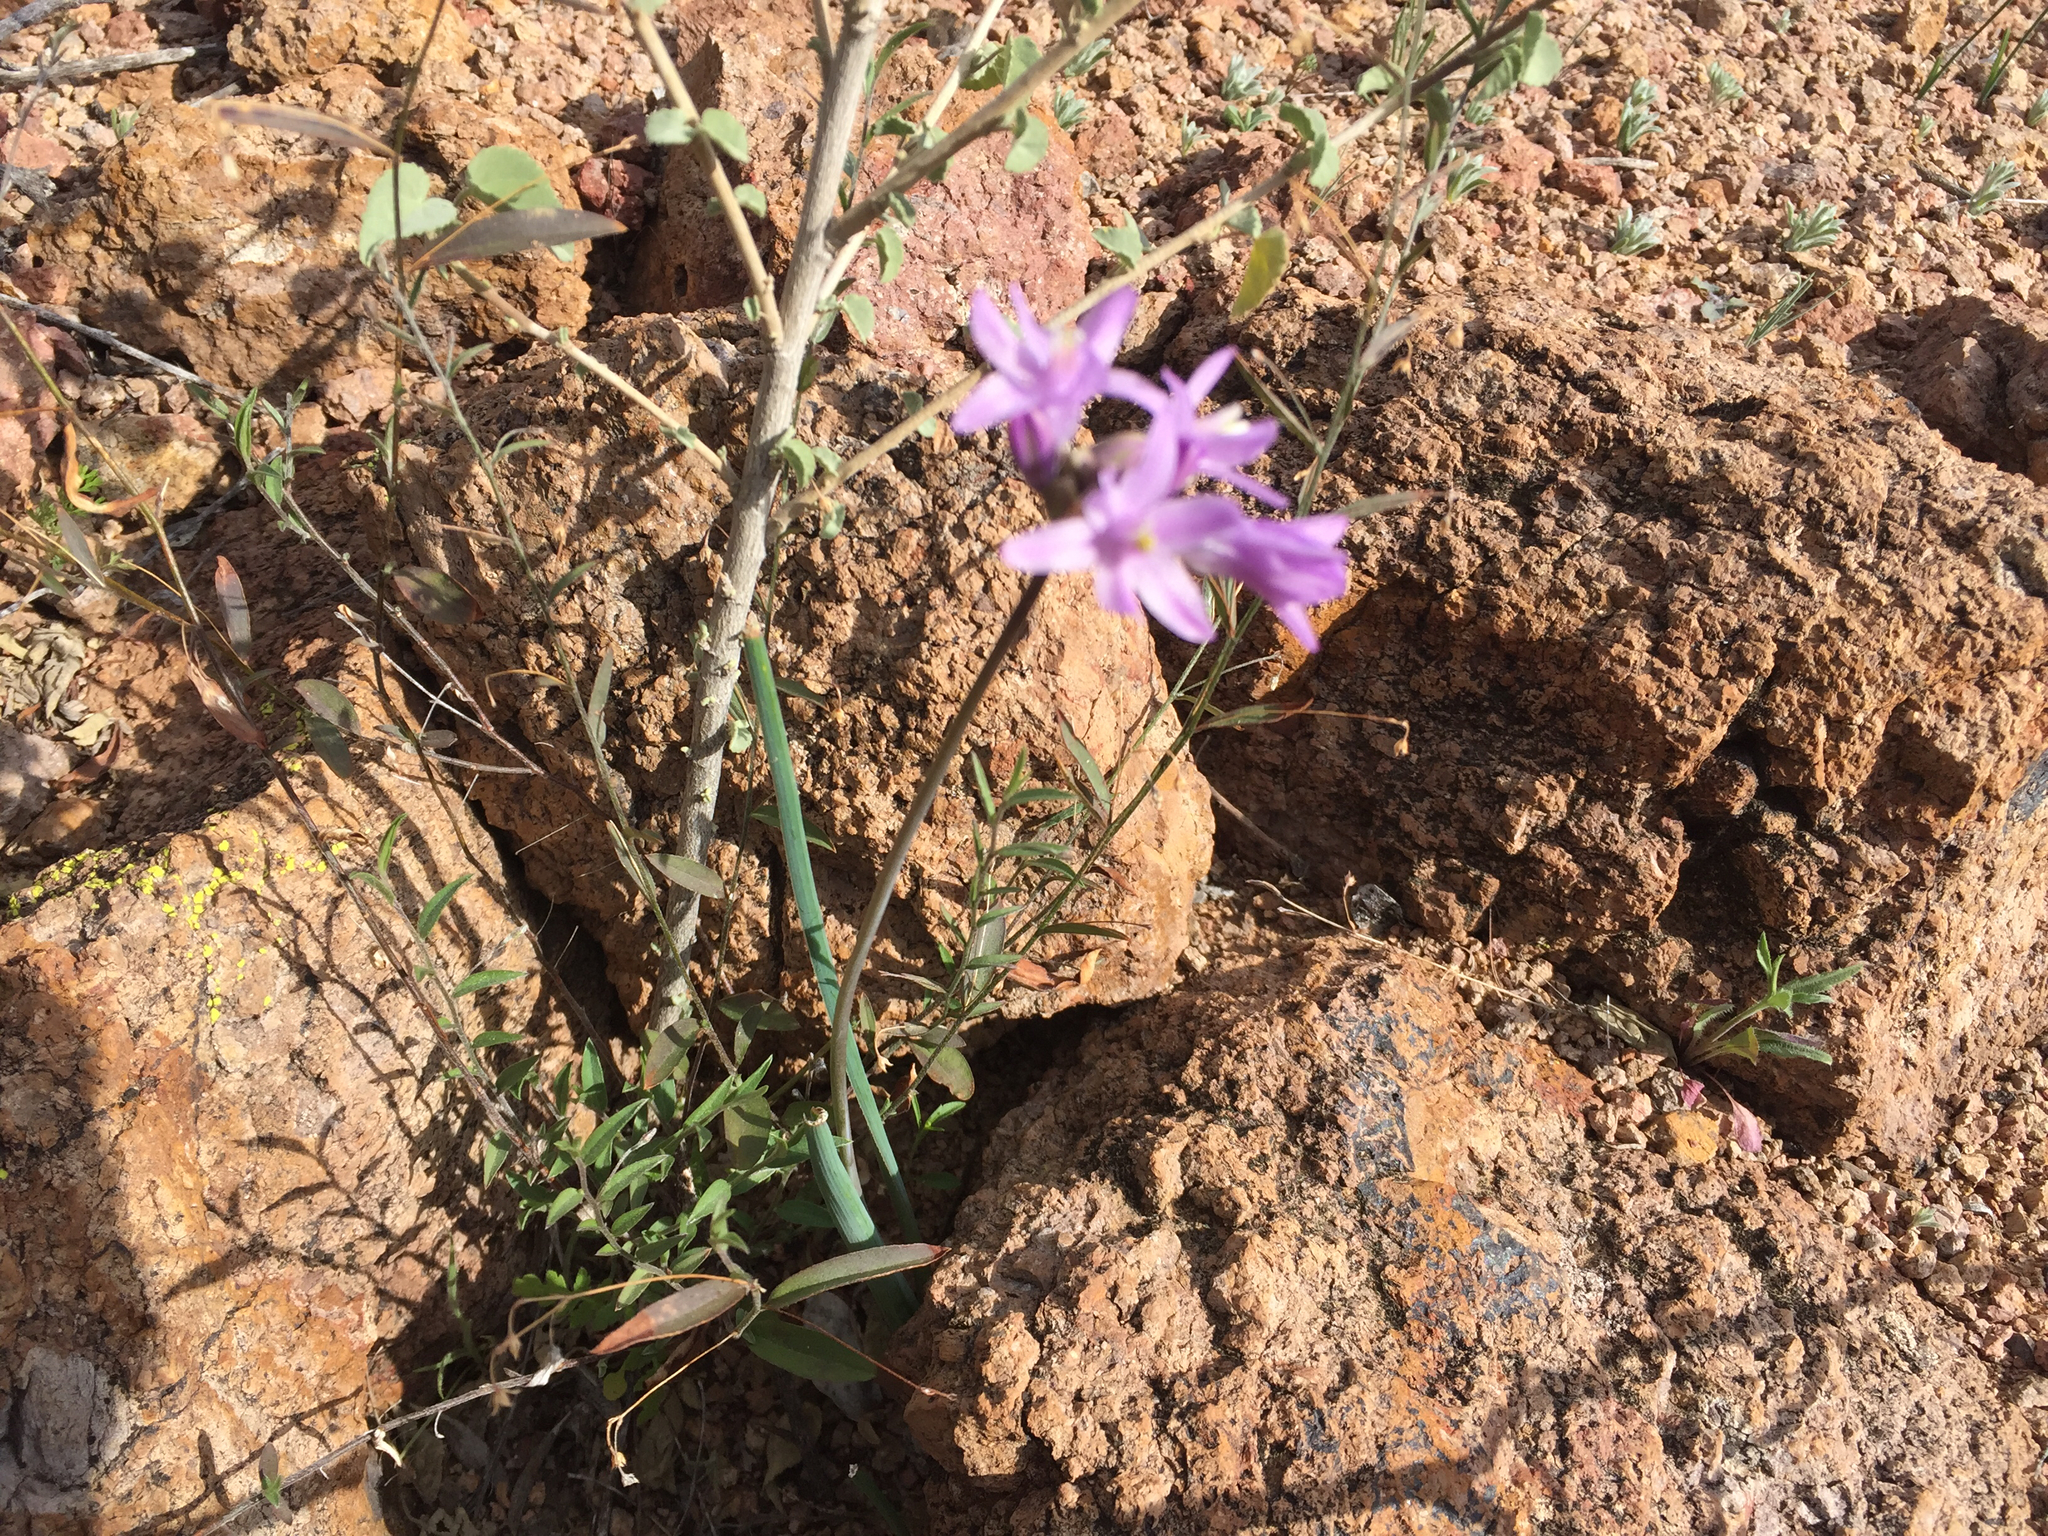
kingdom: Plantae
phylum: Tracheophyta
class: Liliopsida
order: Asparagales
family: Asparagaceae
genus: Dipterostemon
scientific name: Dipterostemon capitatus
